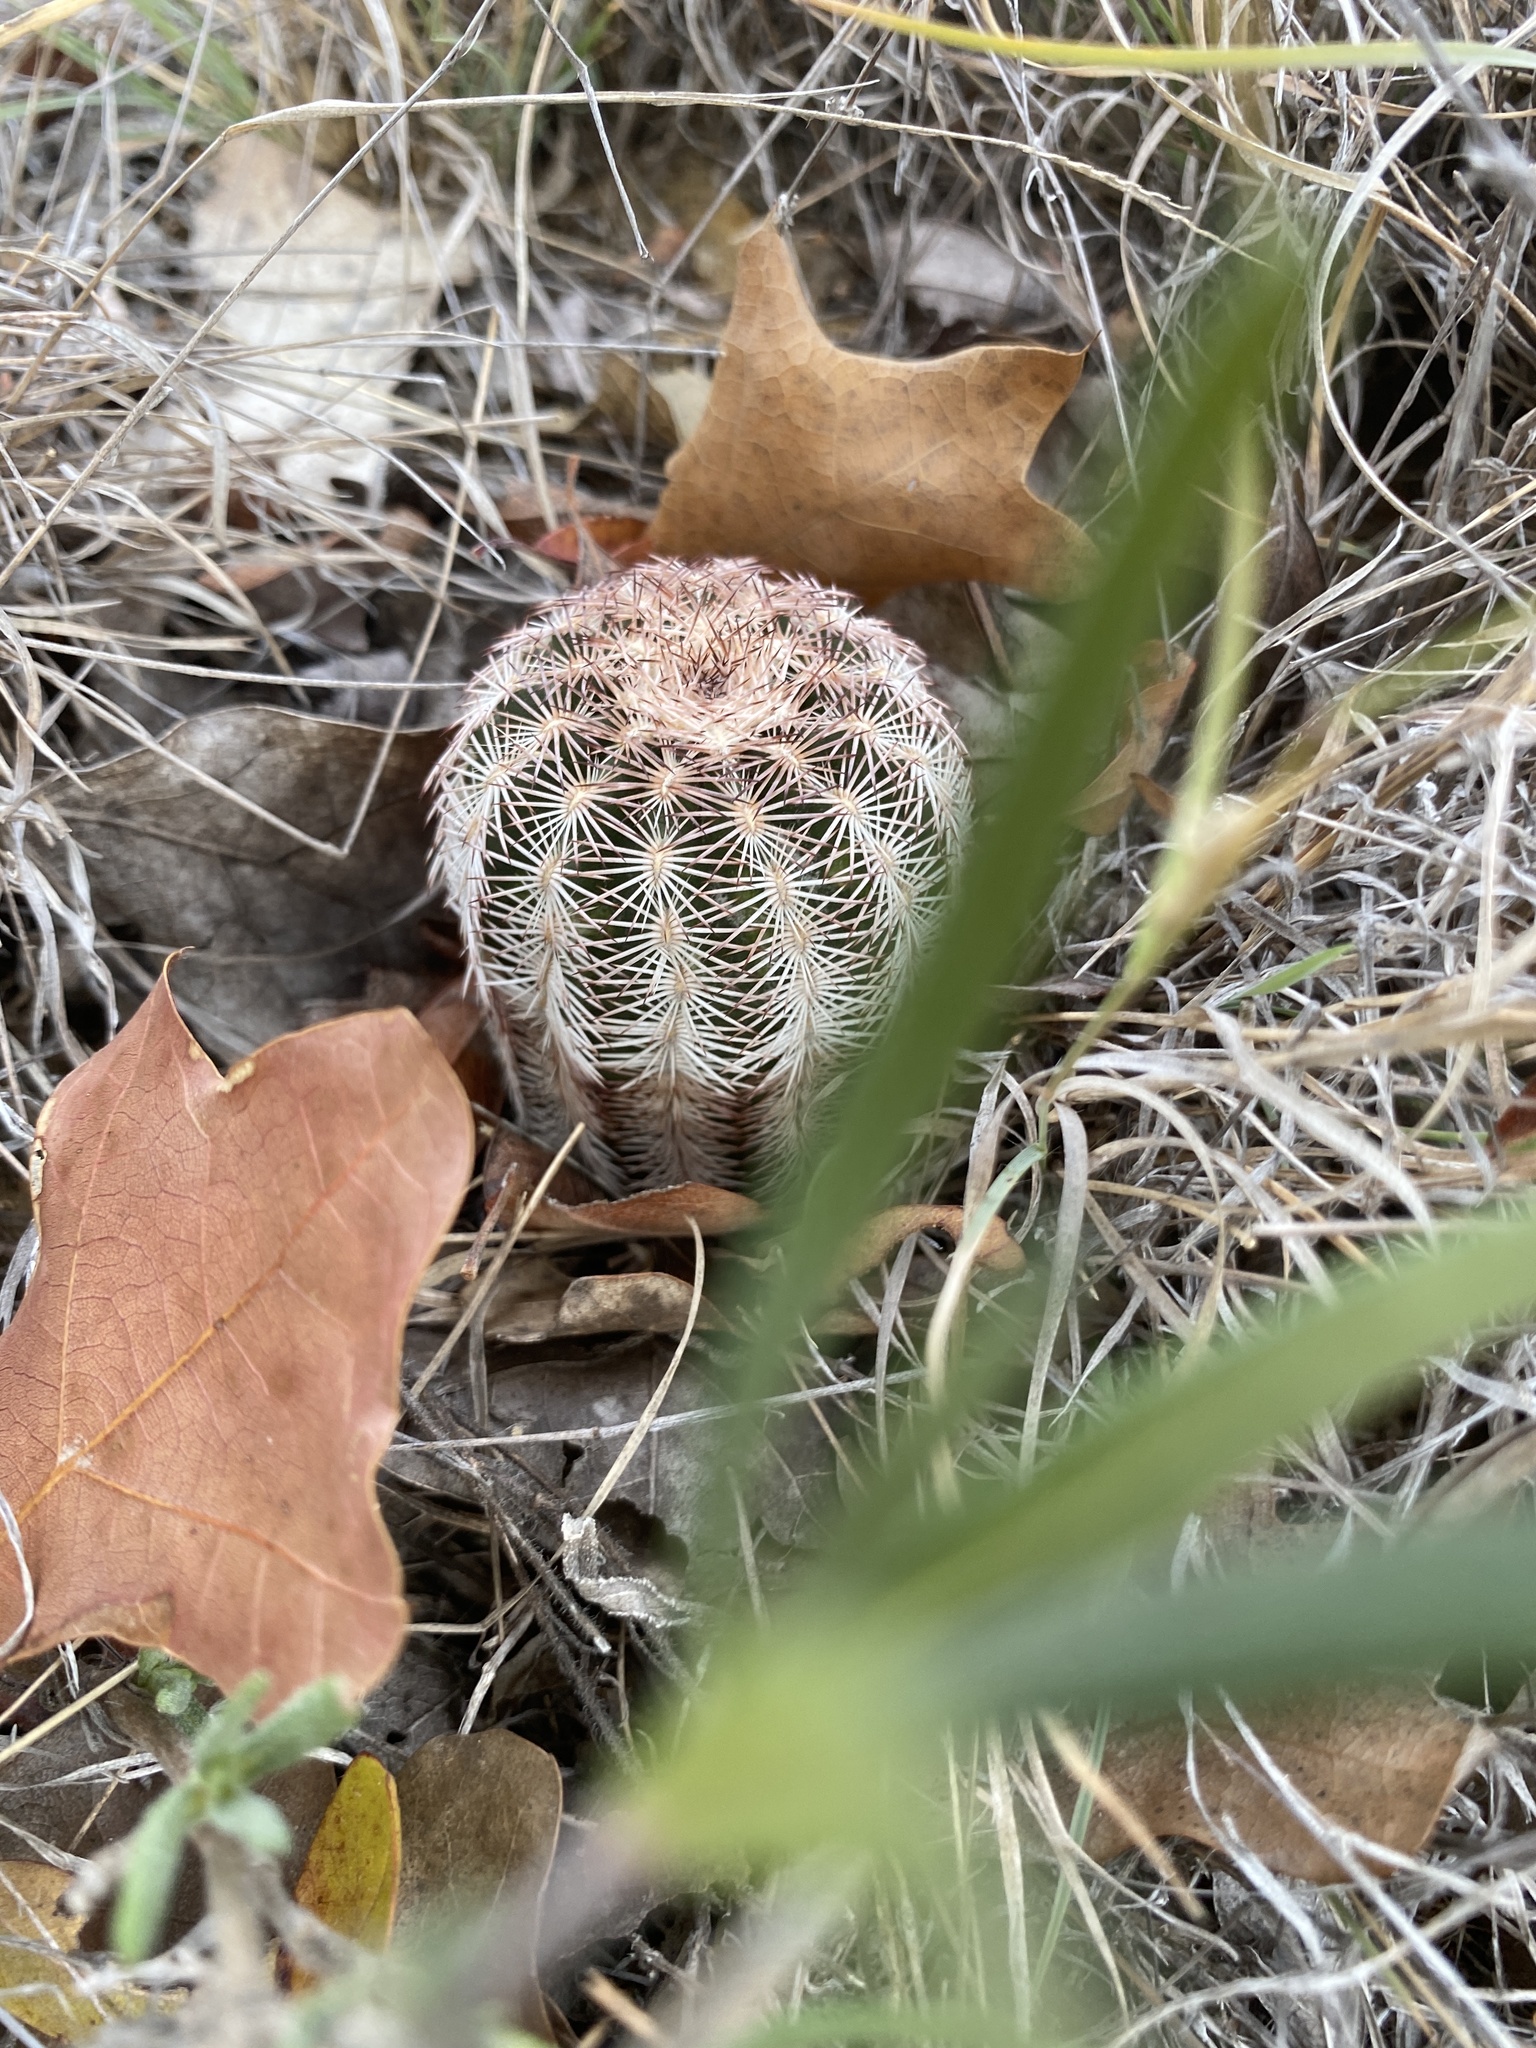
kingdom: Plantae
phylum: Tracheophyta
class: Magnoliopsida
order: Caryophyllales
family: Cactaceae
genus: Echinocereus
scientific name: Echinocereus reichenbachii
